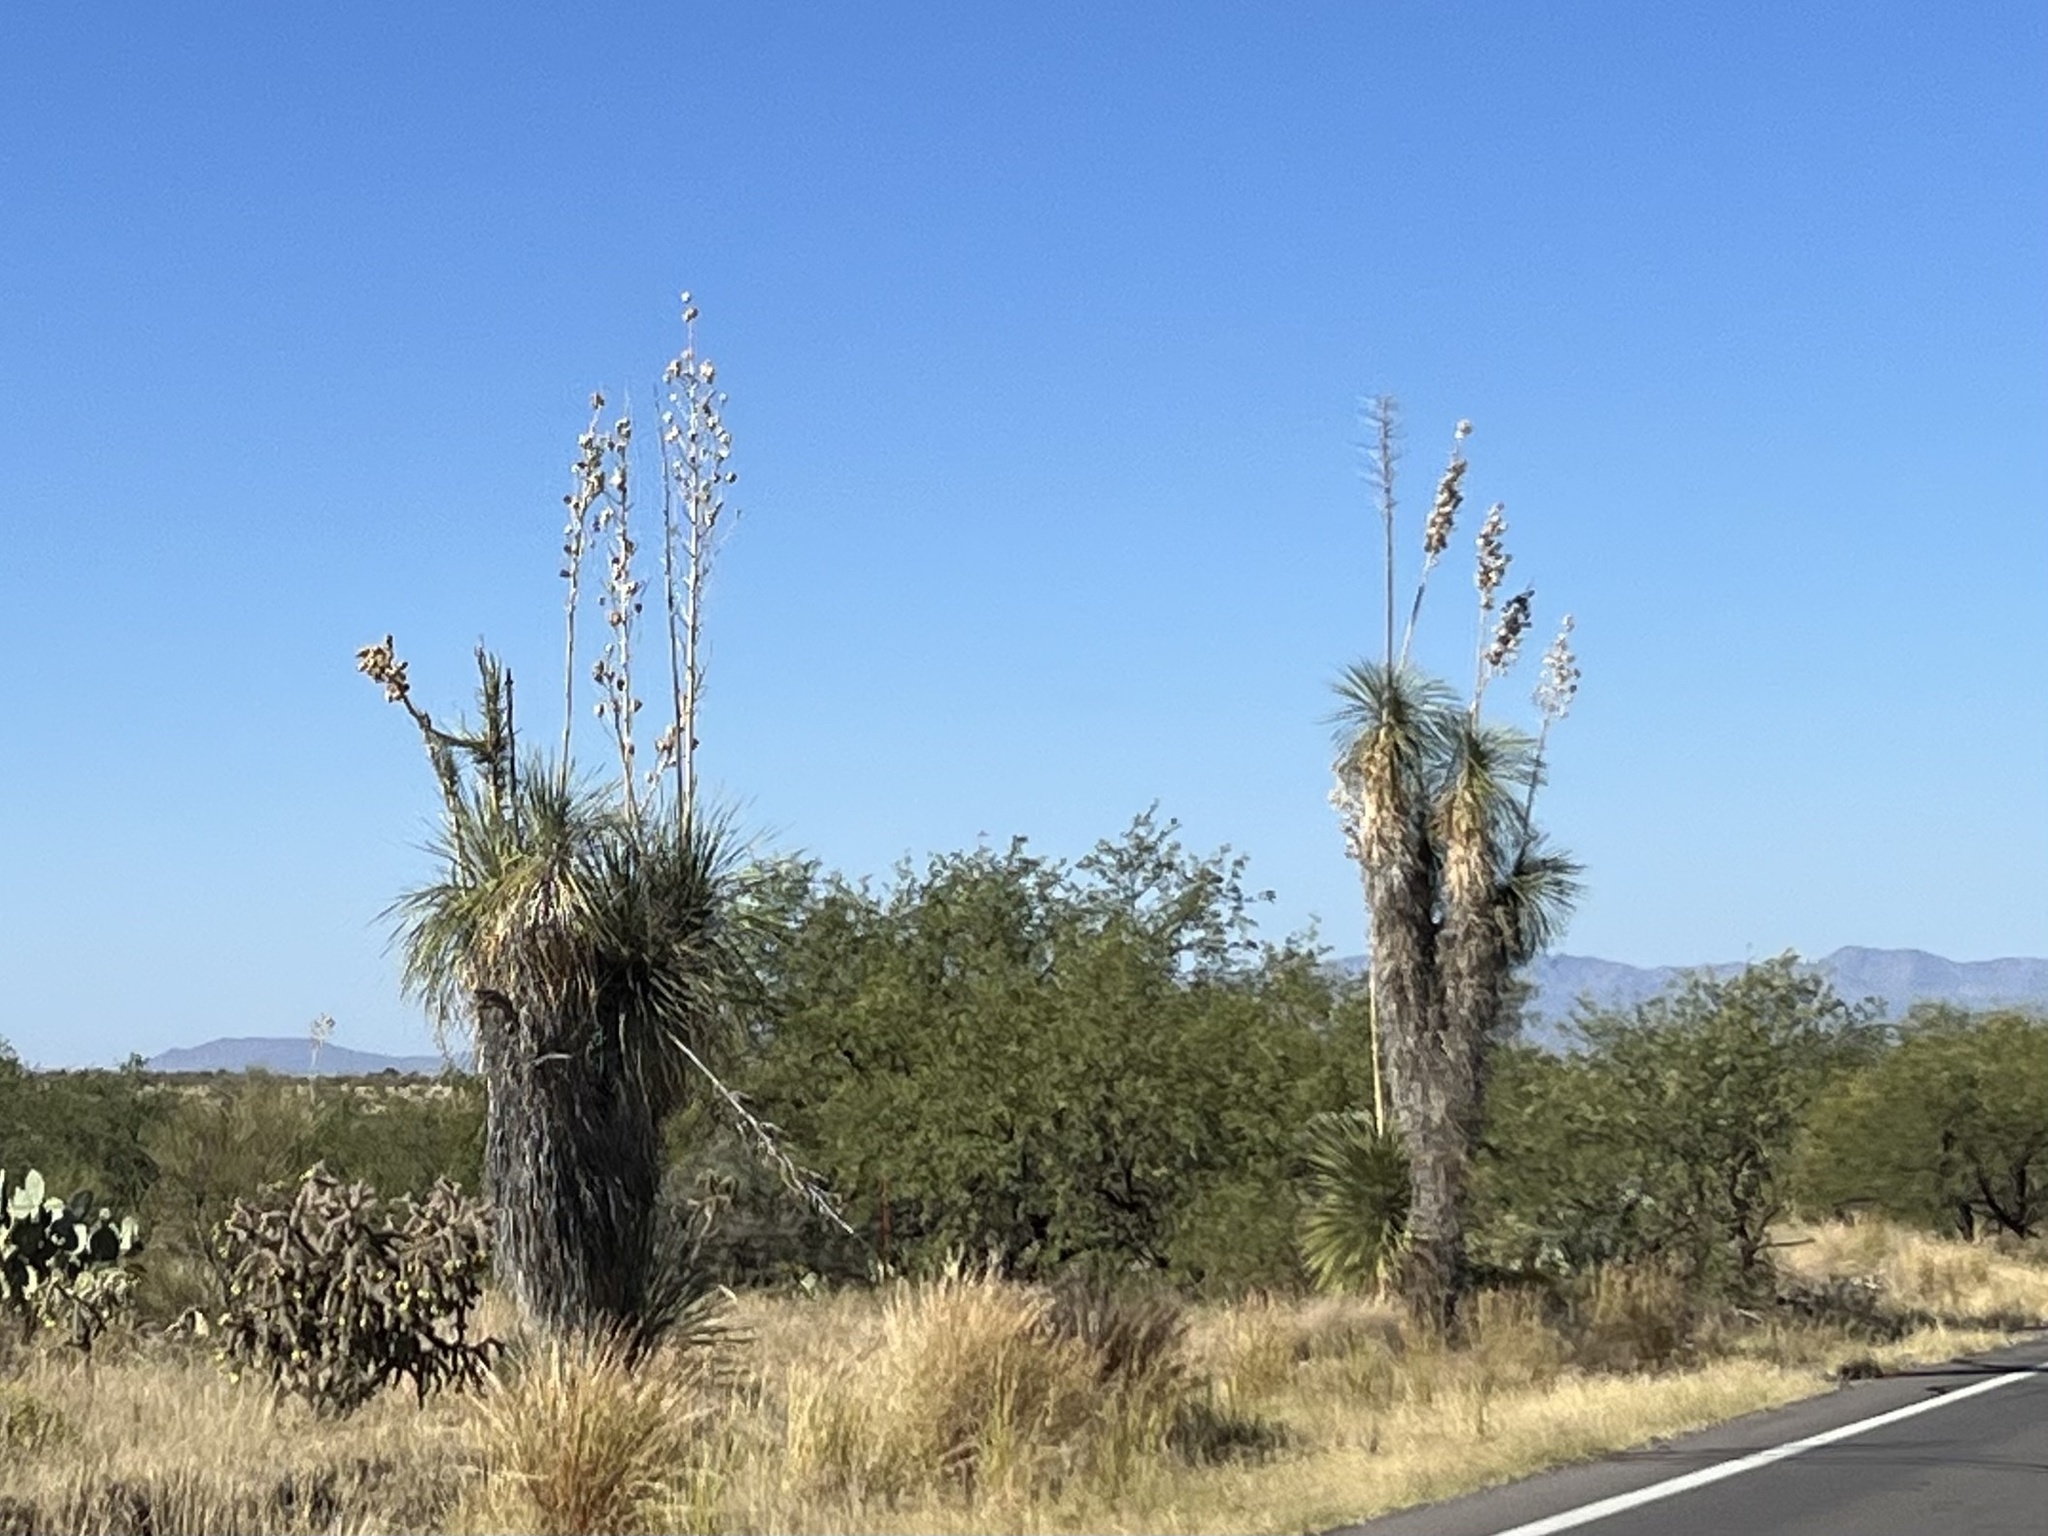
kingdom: Plantae
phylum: Tracheophyta
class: Liliopsida
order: Asparagales
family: Asparagaceae
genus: Yucca
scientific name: Yucca elata
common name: Palmella
